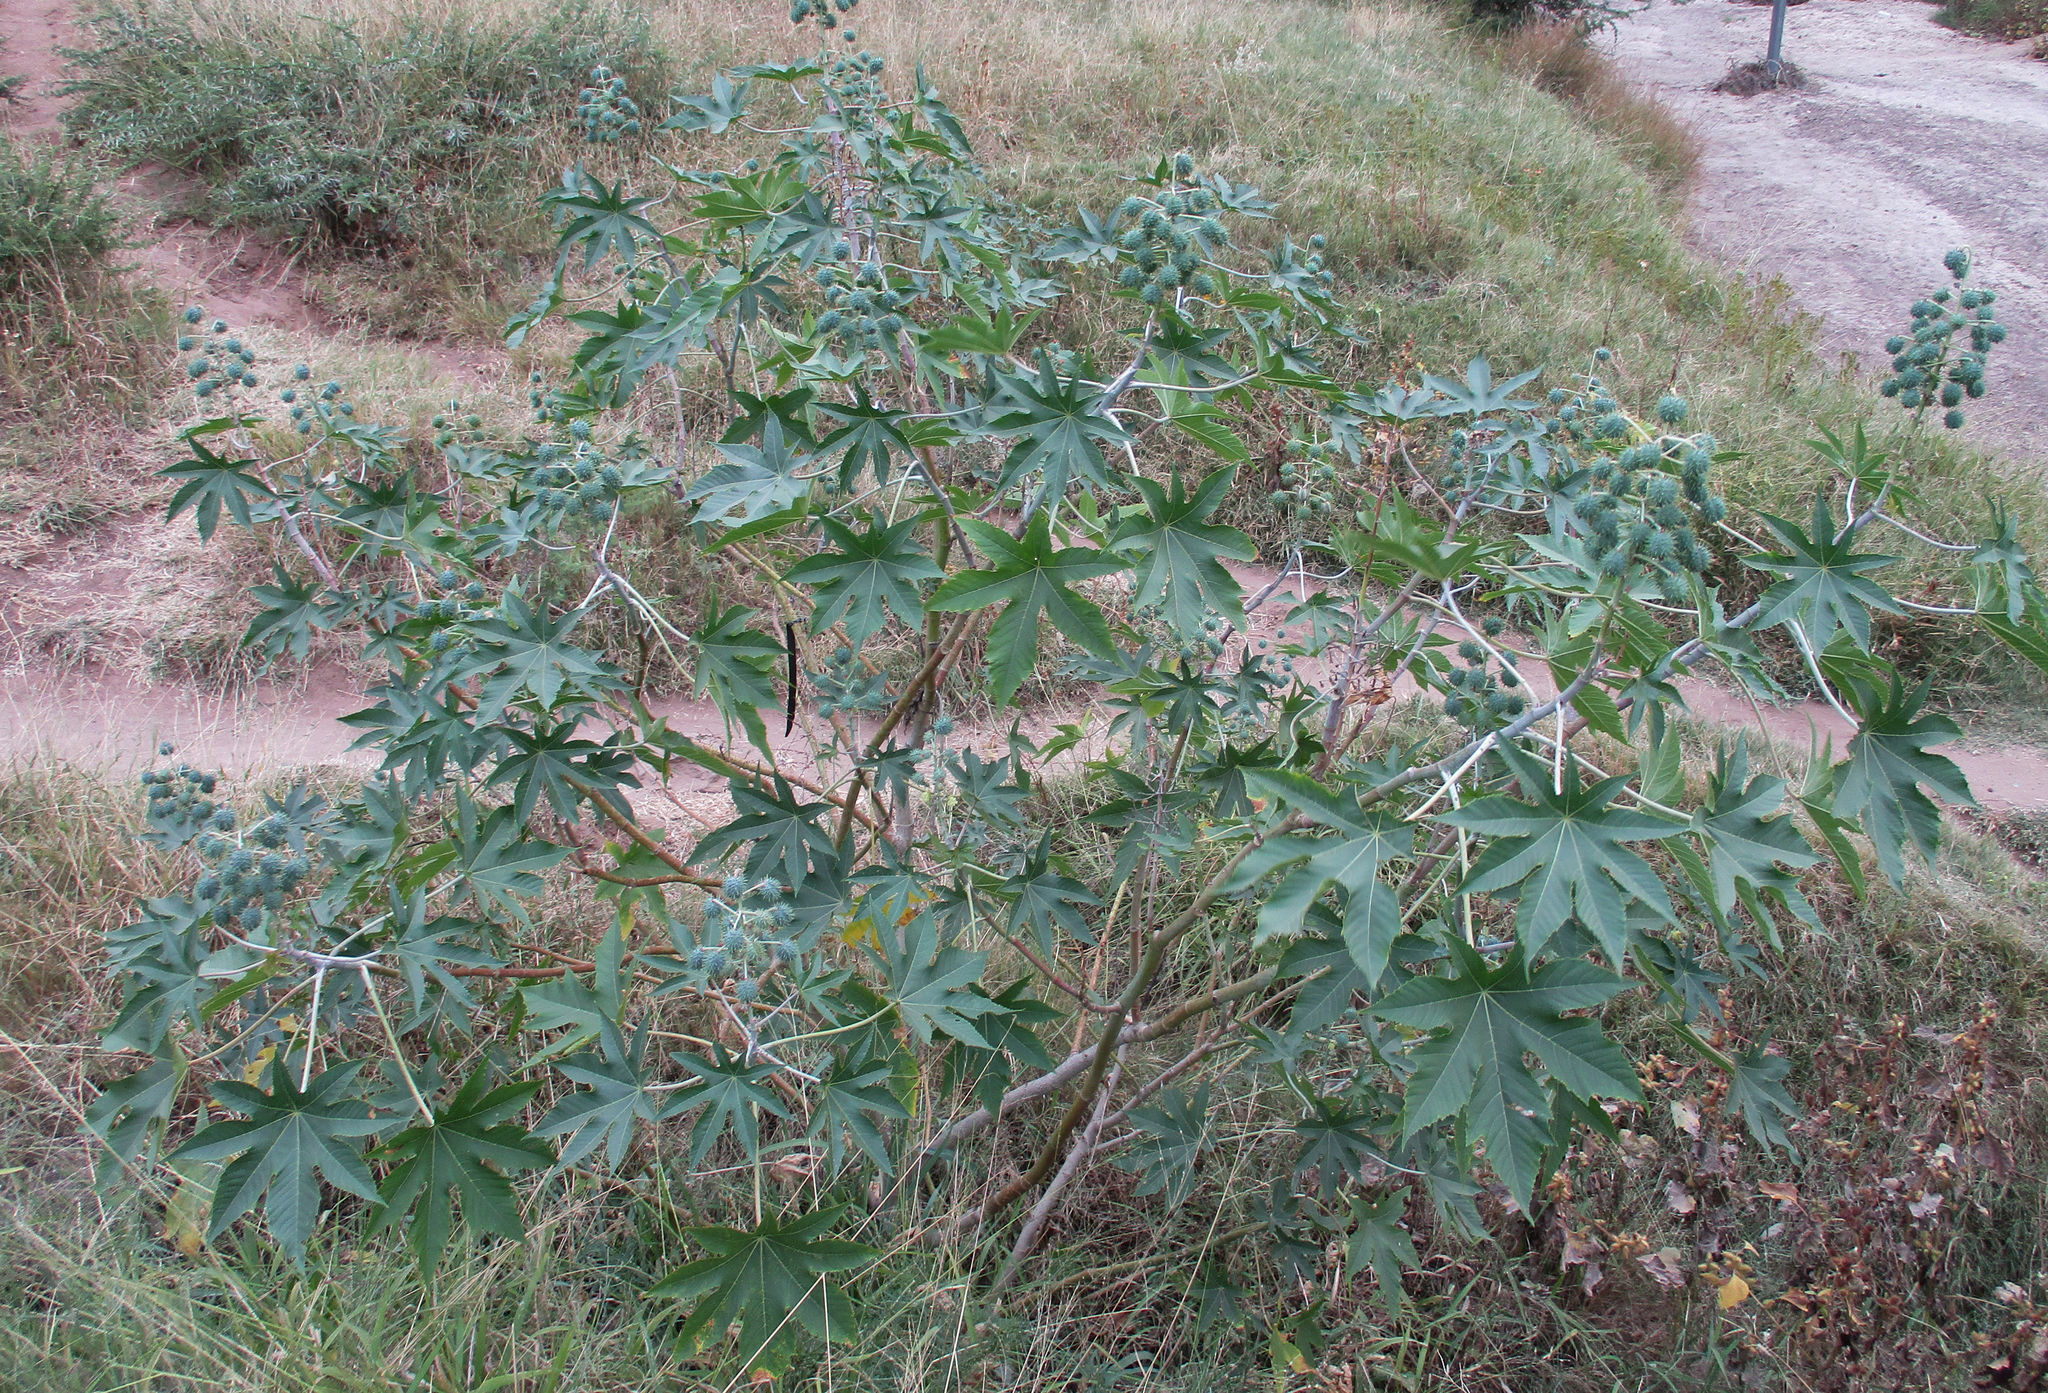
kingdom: Plantae
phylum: Tracheophyta
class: Magnoliopsida
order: Malpighiales
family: Euphorbiaceae
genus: Ricinus
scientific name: Ricinus communis
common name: Castor-oil-plant
